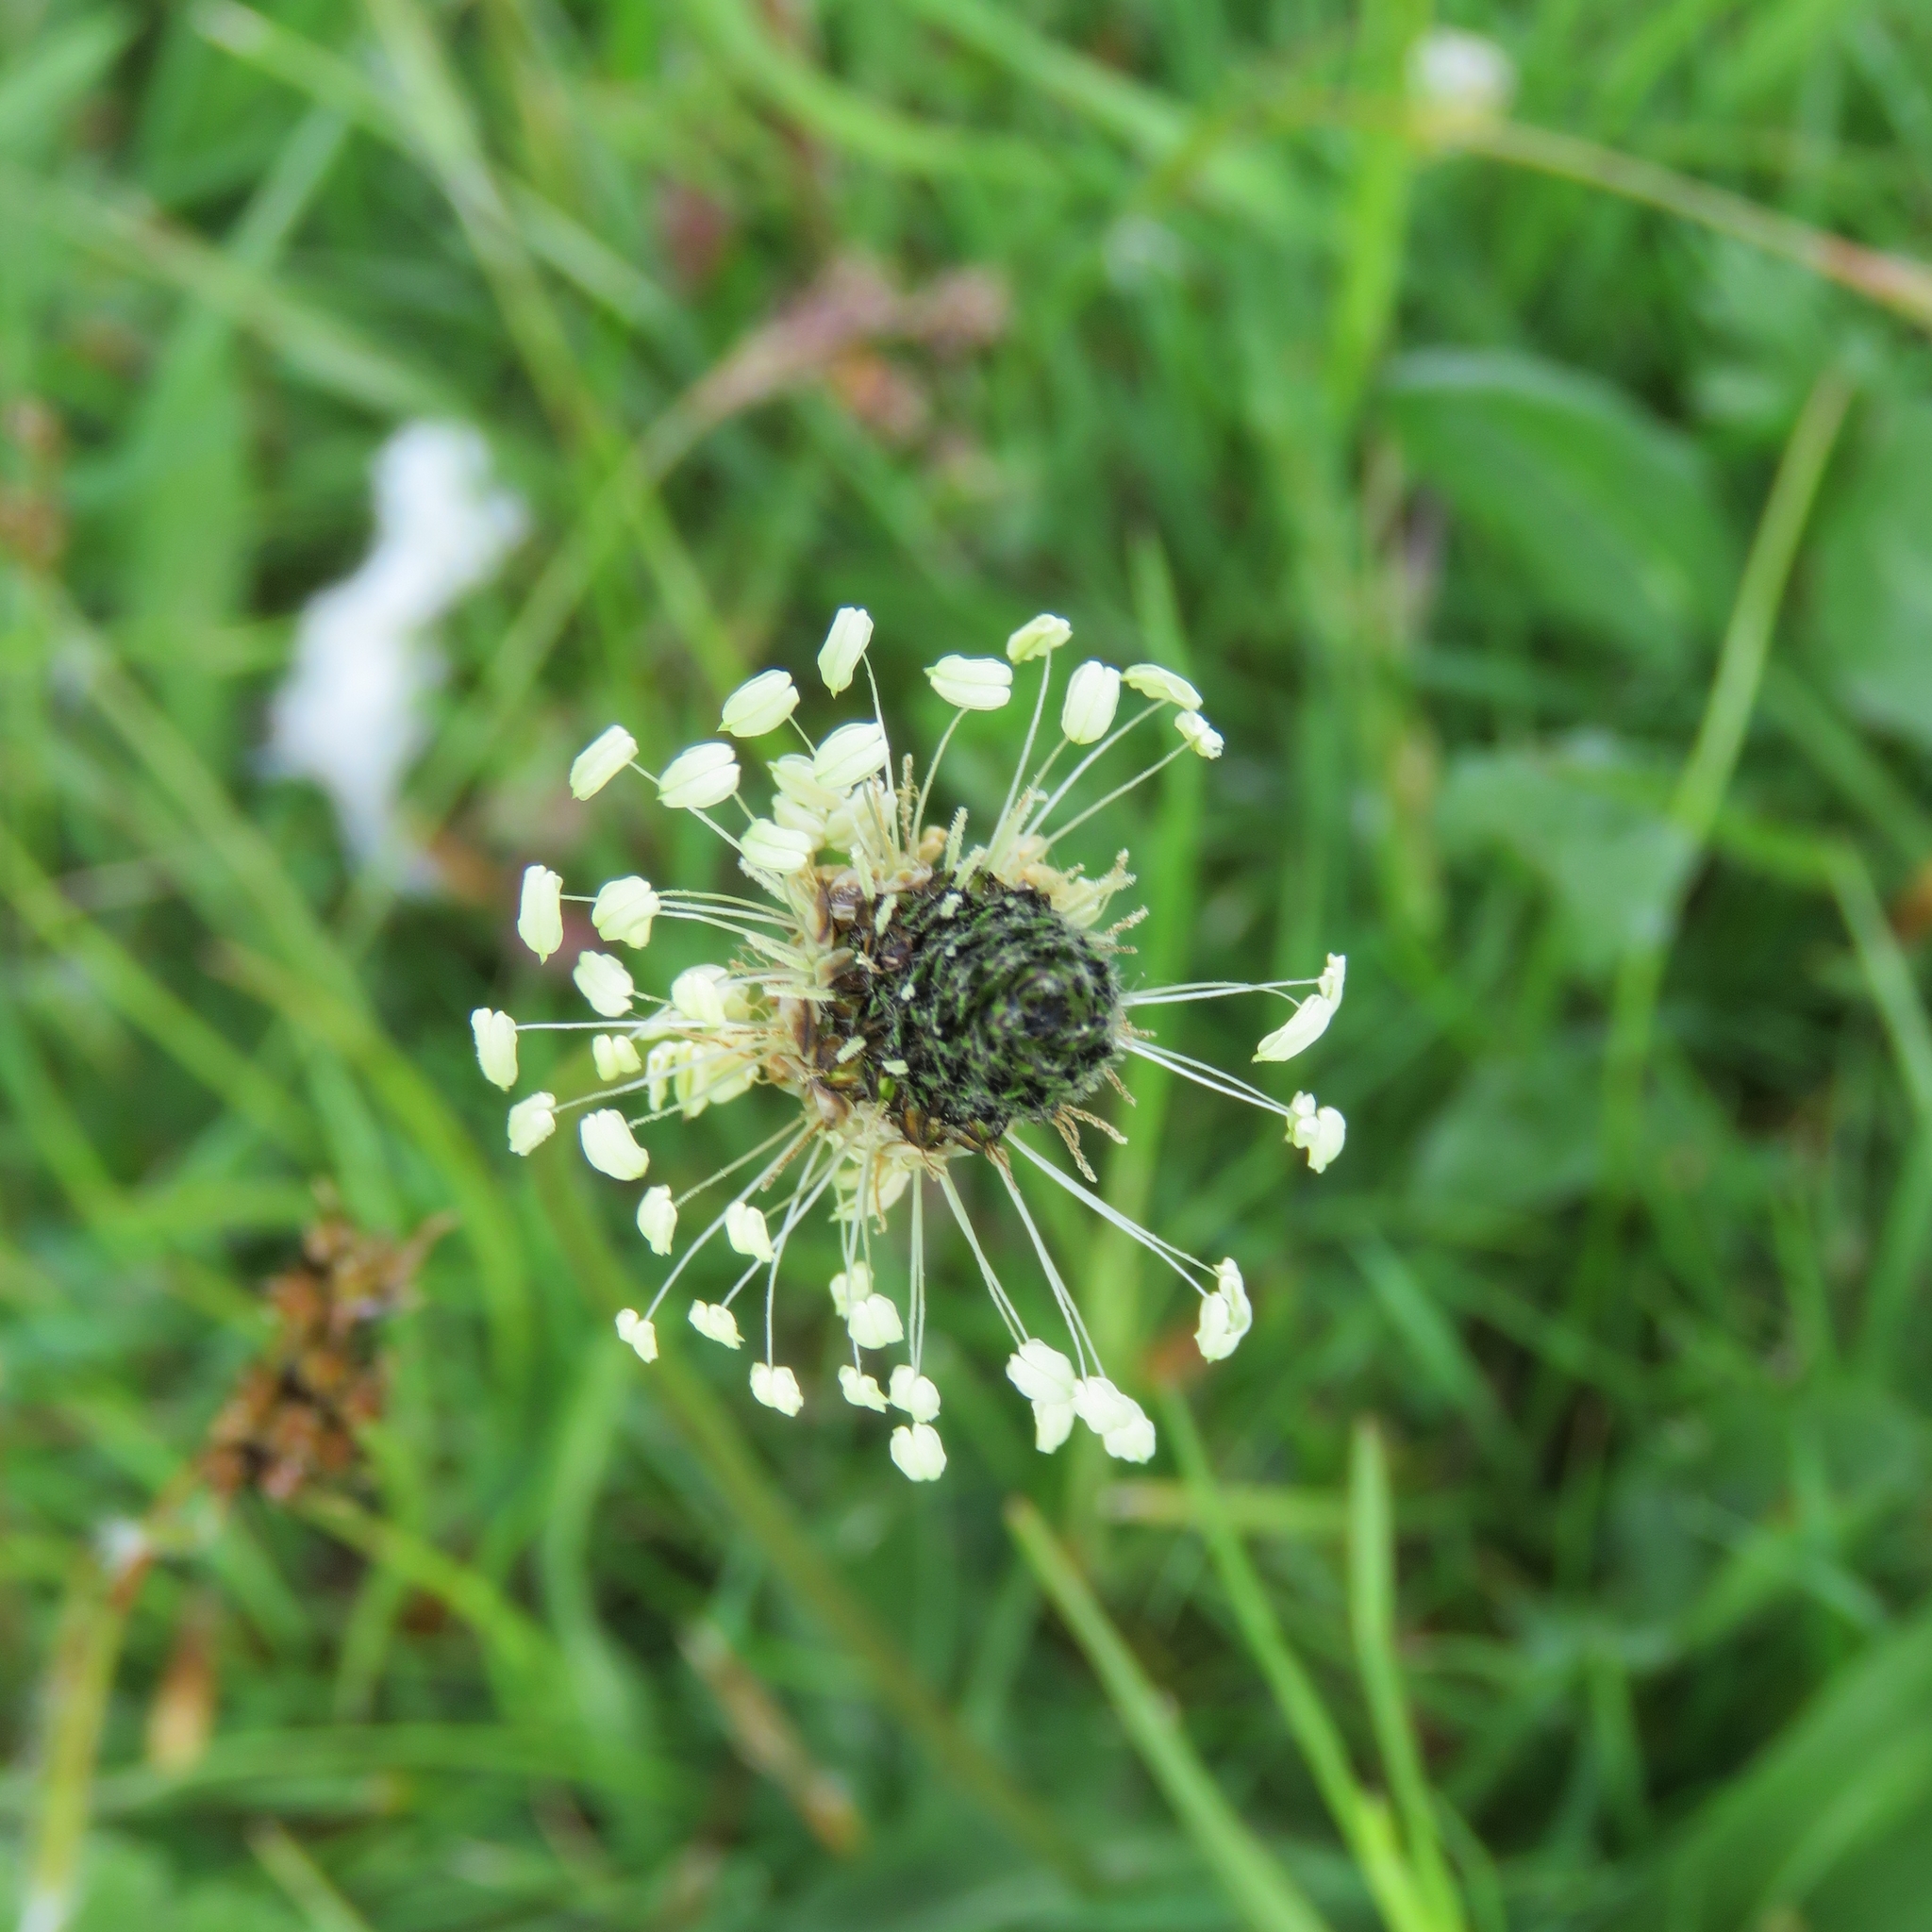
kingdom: Plantae
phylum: Tracheophyta
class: Magnoliopsida
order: Lamiales
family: Plantaginaceae
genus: Plantago
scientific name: Plantago lanceolata
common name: Ribwort plantain
